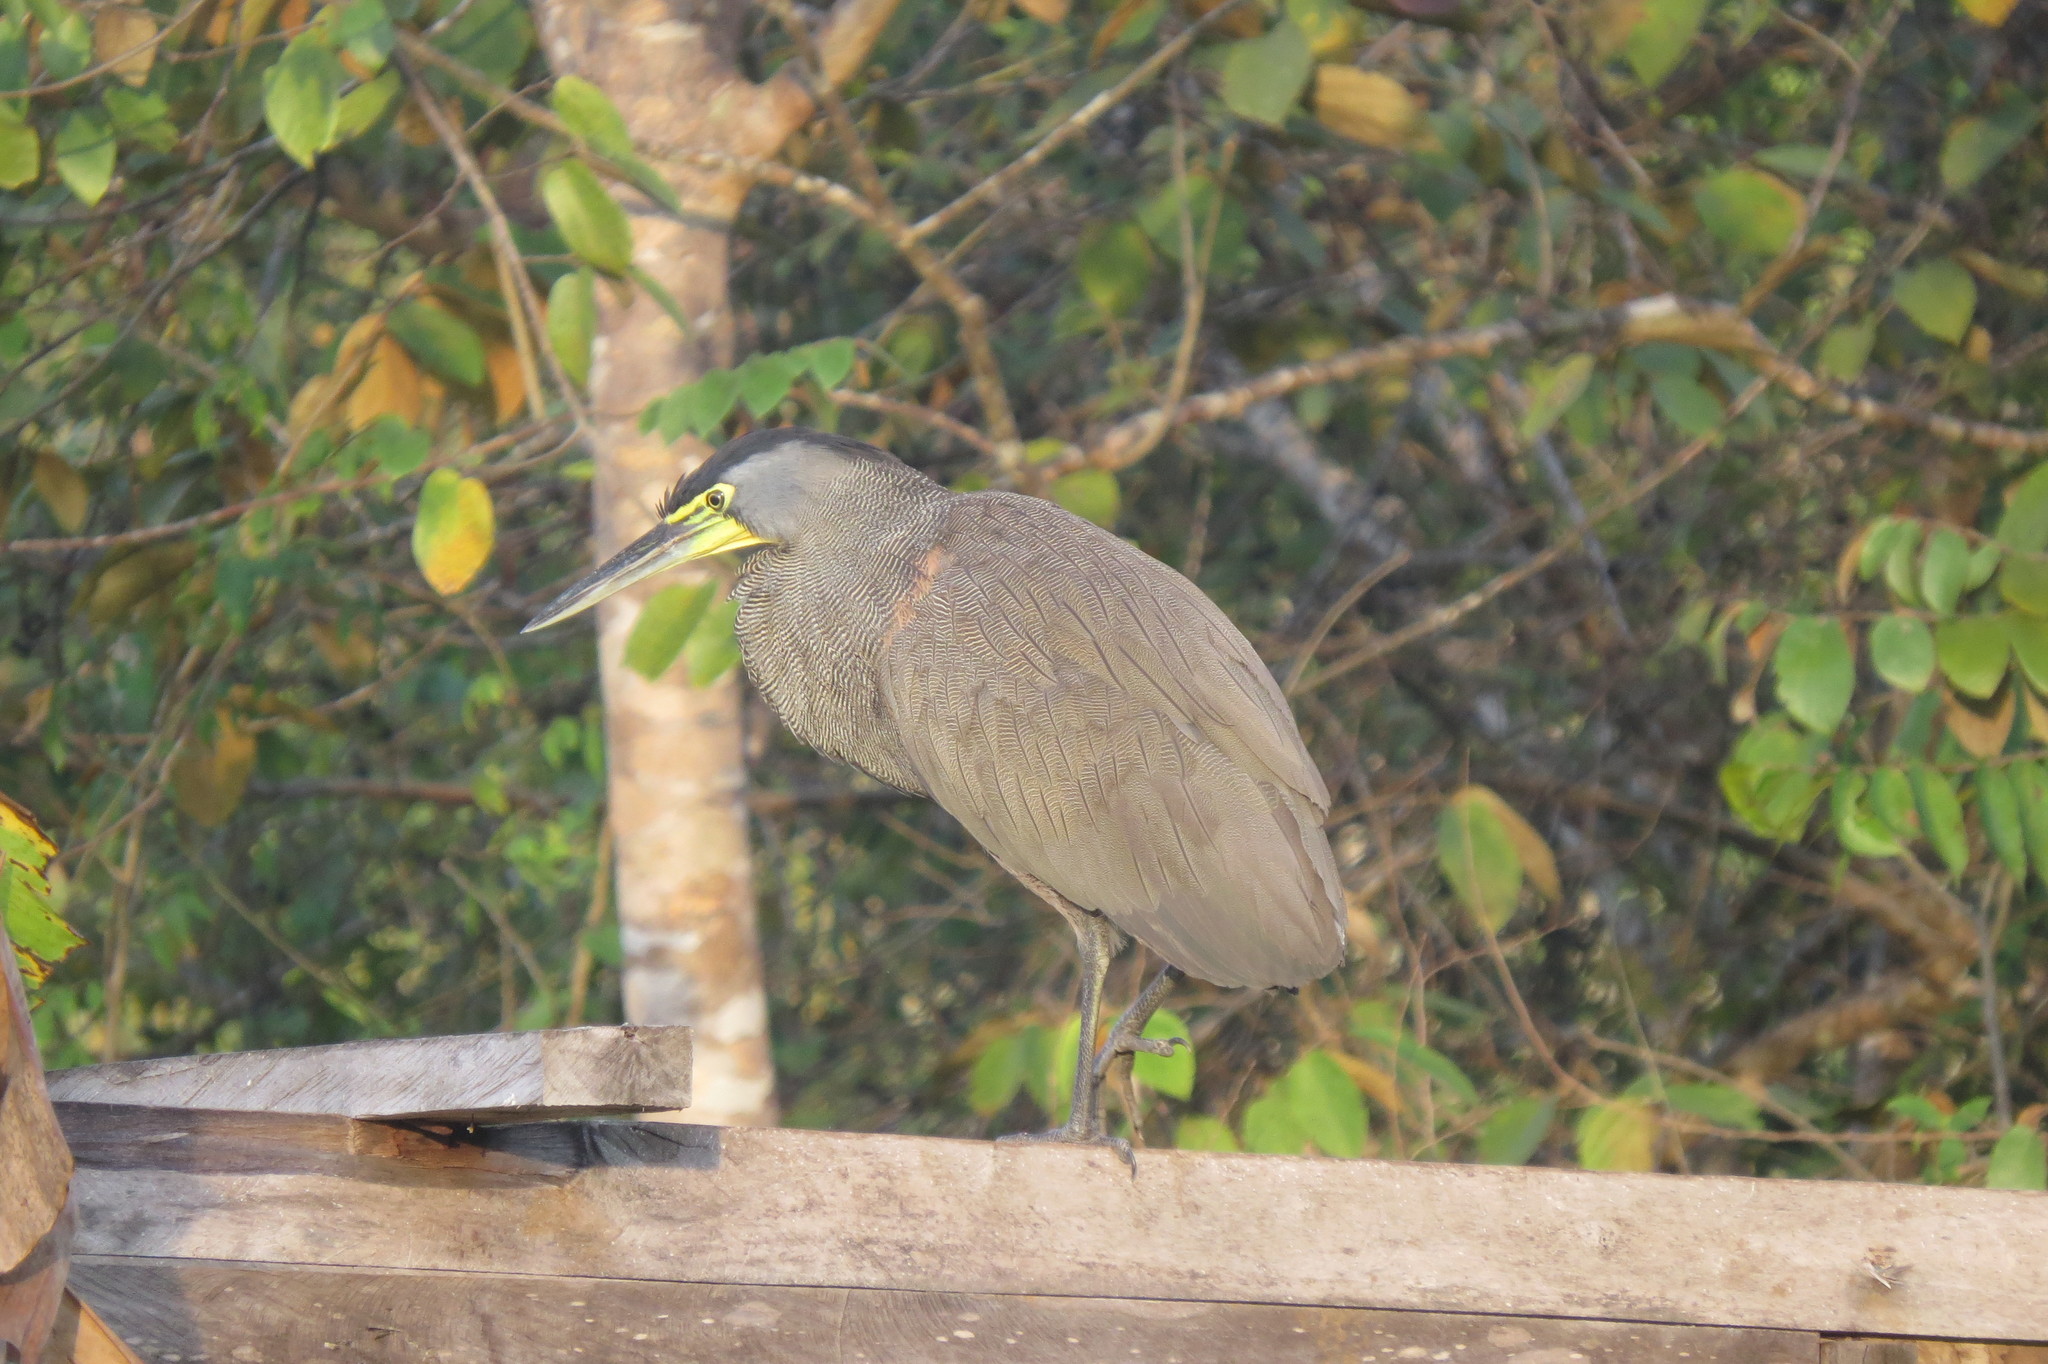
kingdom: Animalia
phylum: Chordata
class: Aves
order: Pelecaniformes
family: Ardeidae
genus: Tigrisoma
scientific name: Tigrisoma mexicanum
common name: Bare-throated tiger-heron
